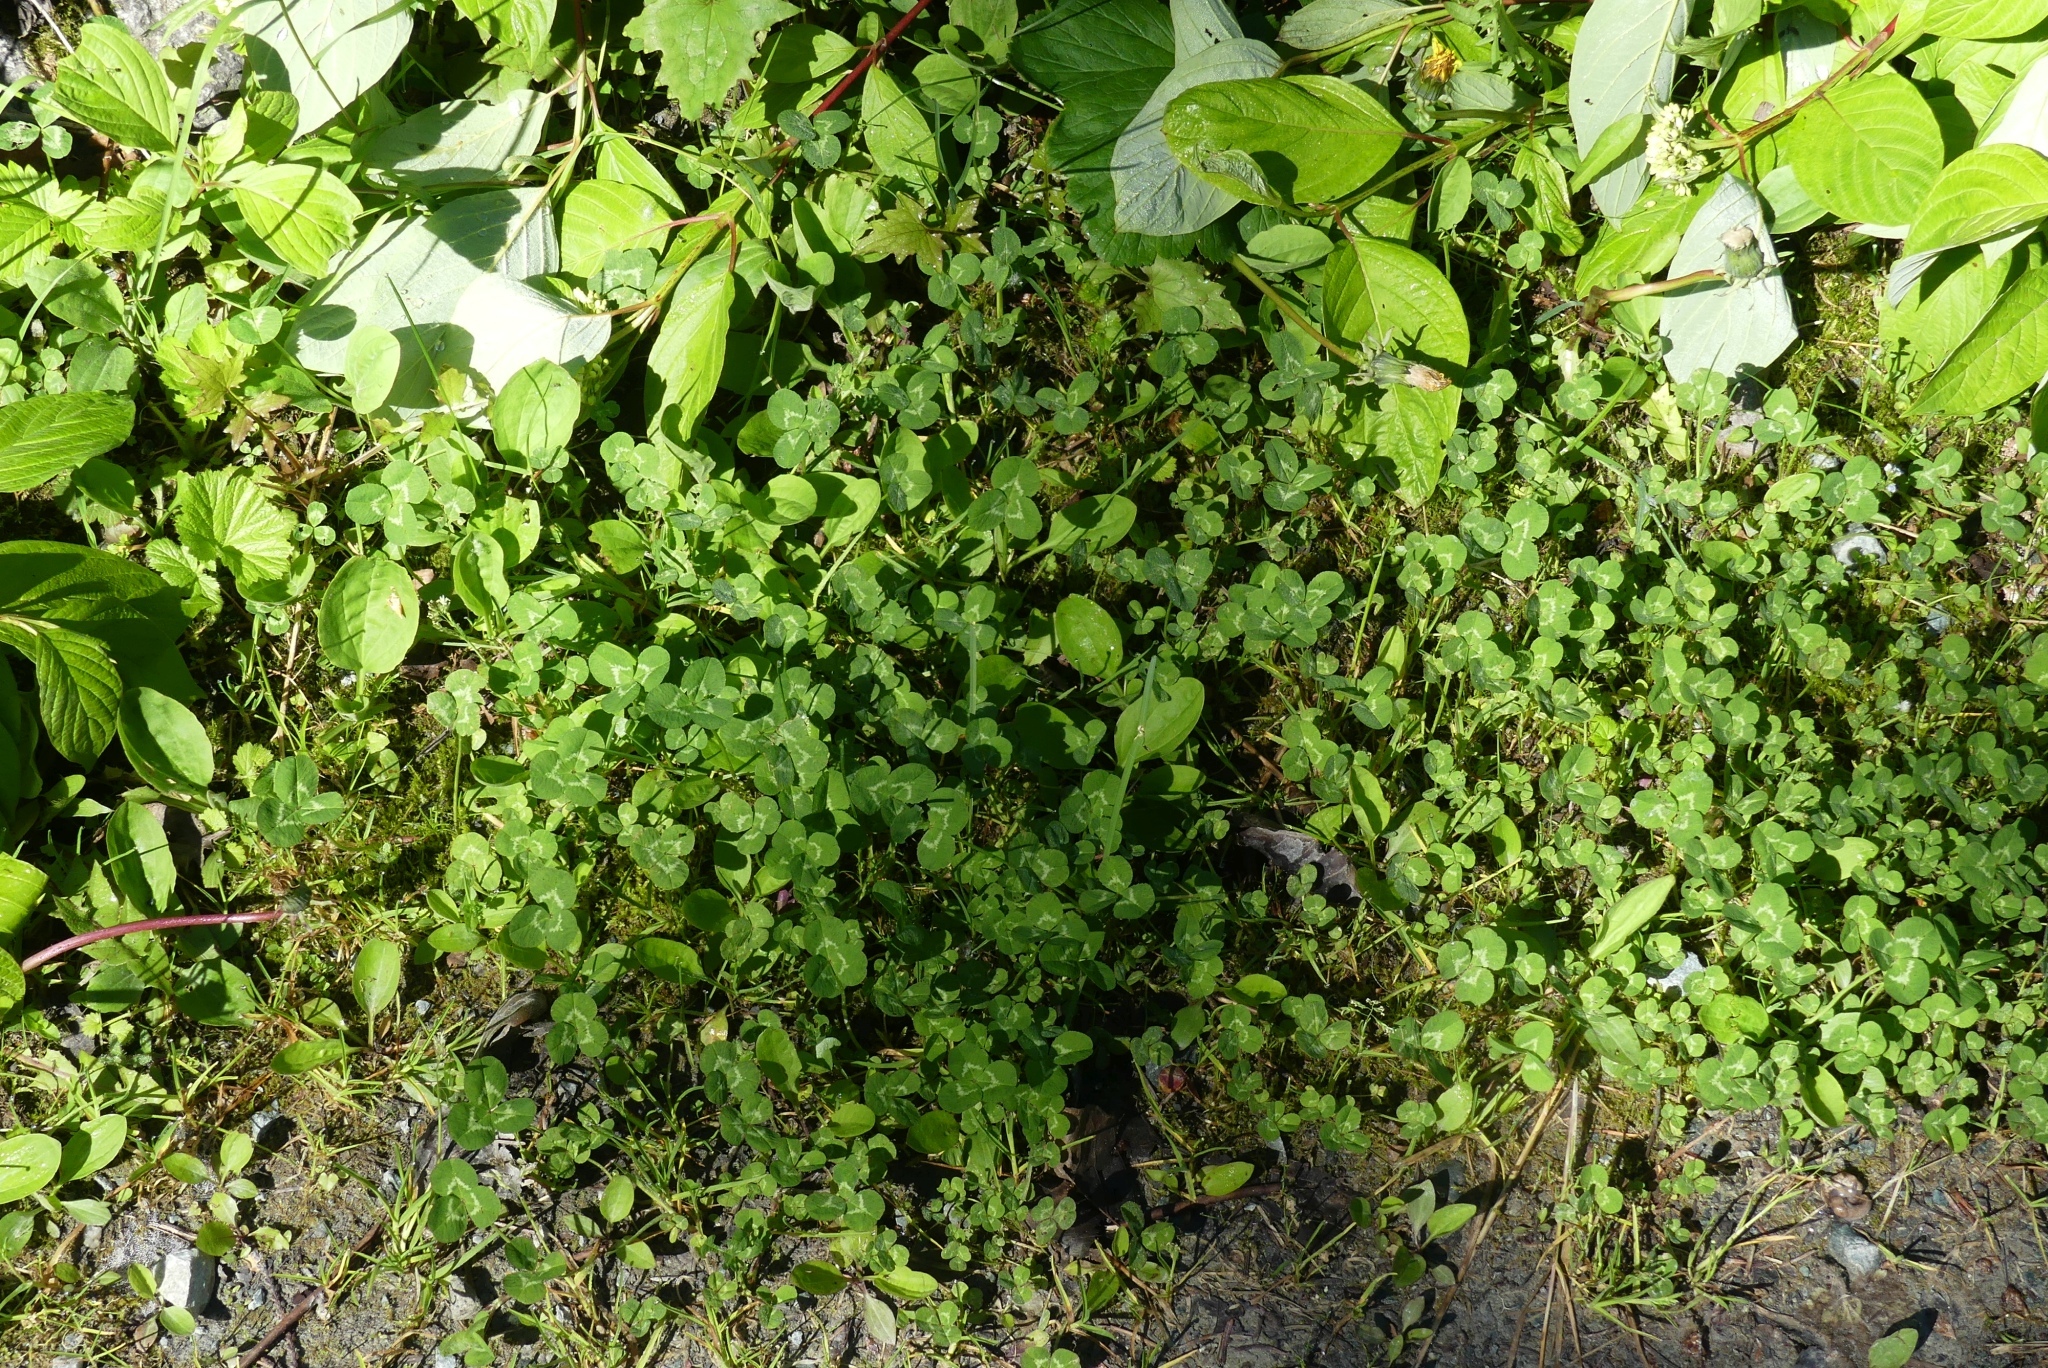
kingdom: Plantae
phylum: Tracheophyta
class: Magnoliopsida
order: Fabales
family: Fabaceae
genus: Trifolium
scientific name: Trifolium repens
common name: White clover
